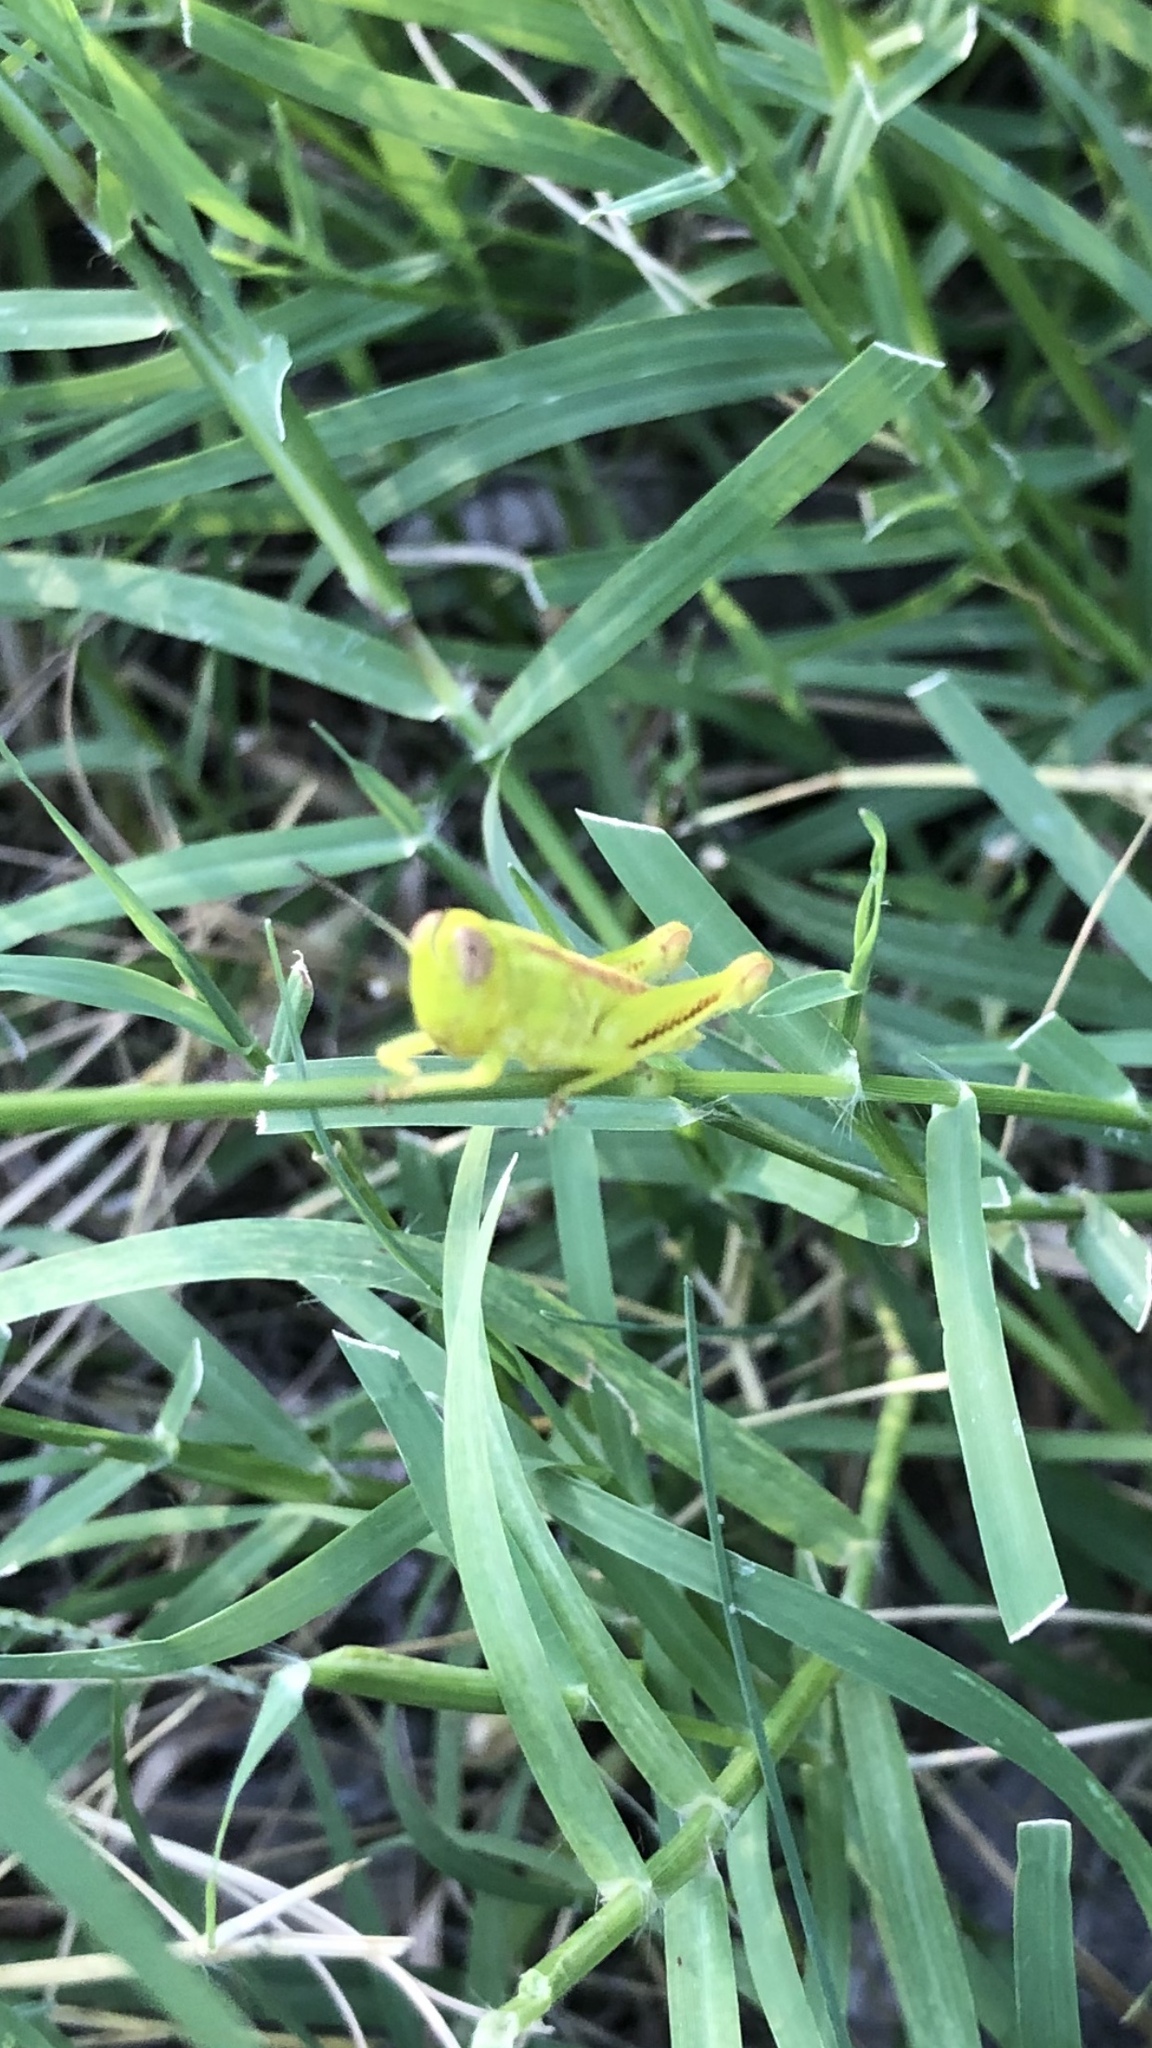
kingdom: Animalia
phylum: Arthropoda
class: Insecta
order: Orthoptera
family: Acrididae
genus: Melanoplus
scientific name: Melanoplus bivittatus
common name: Two-striped grasshopper
